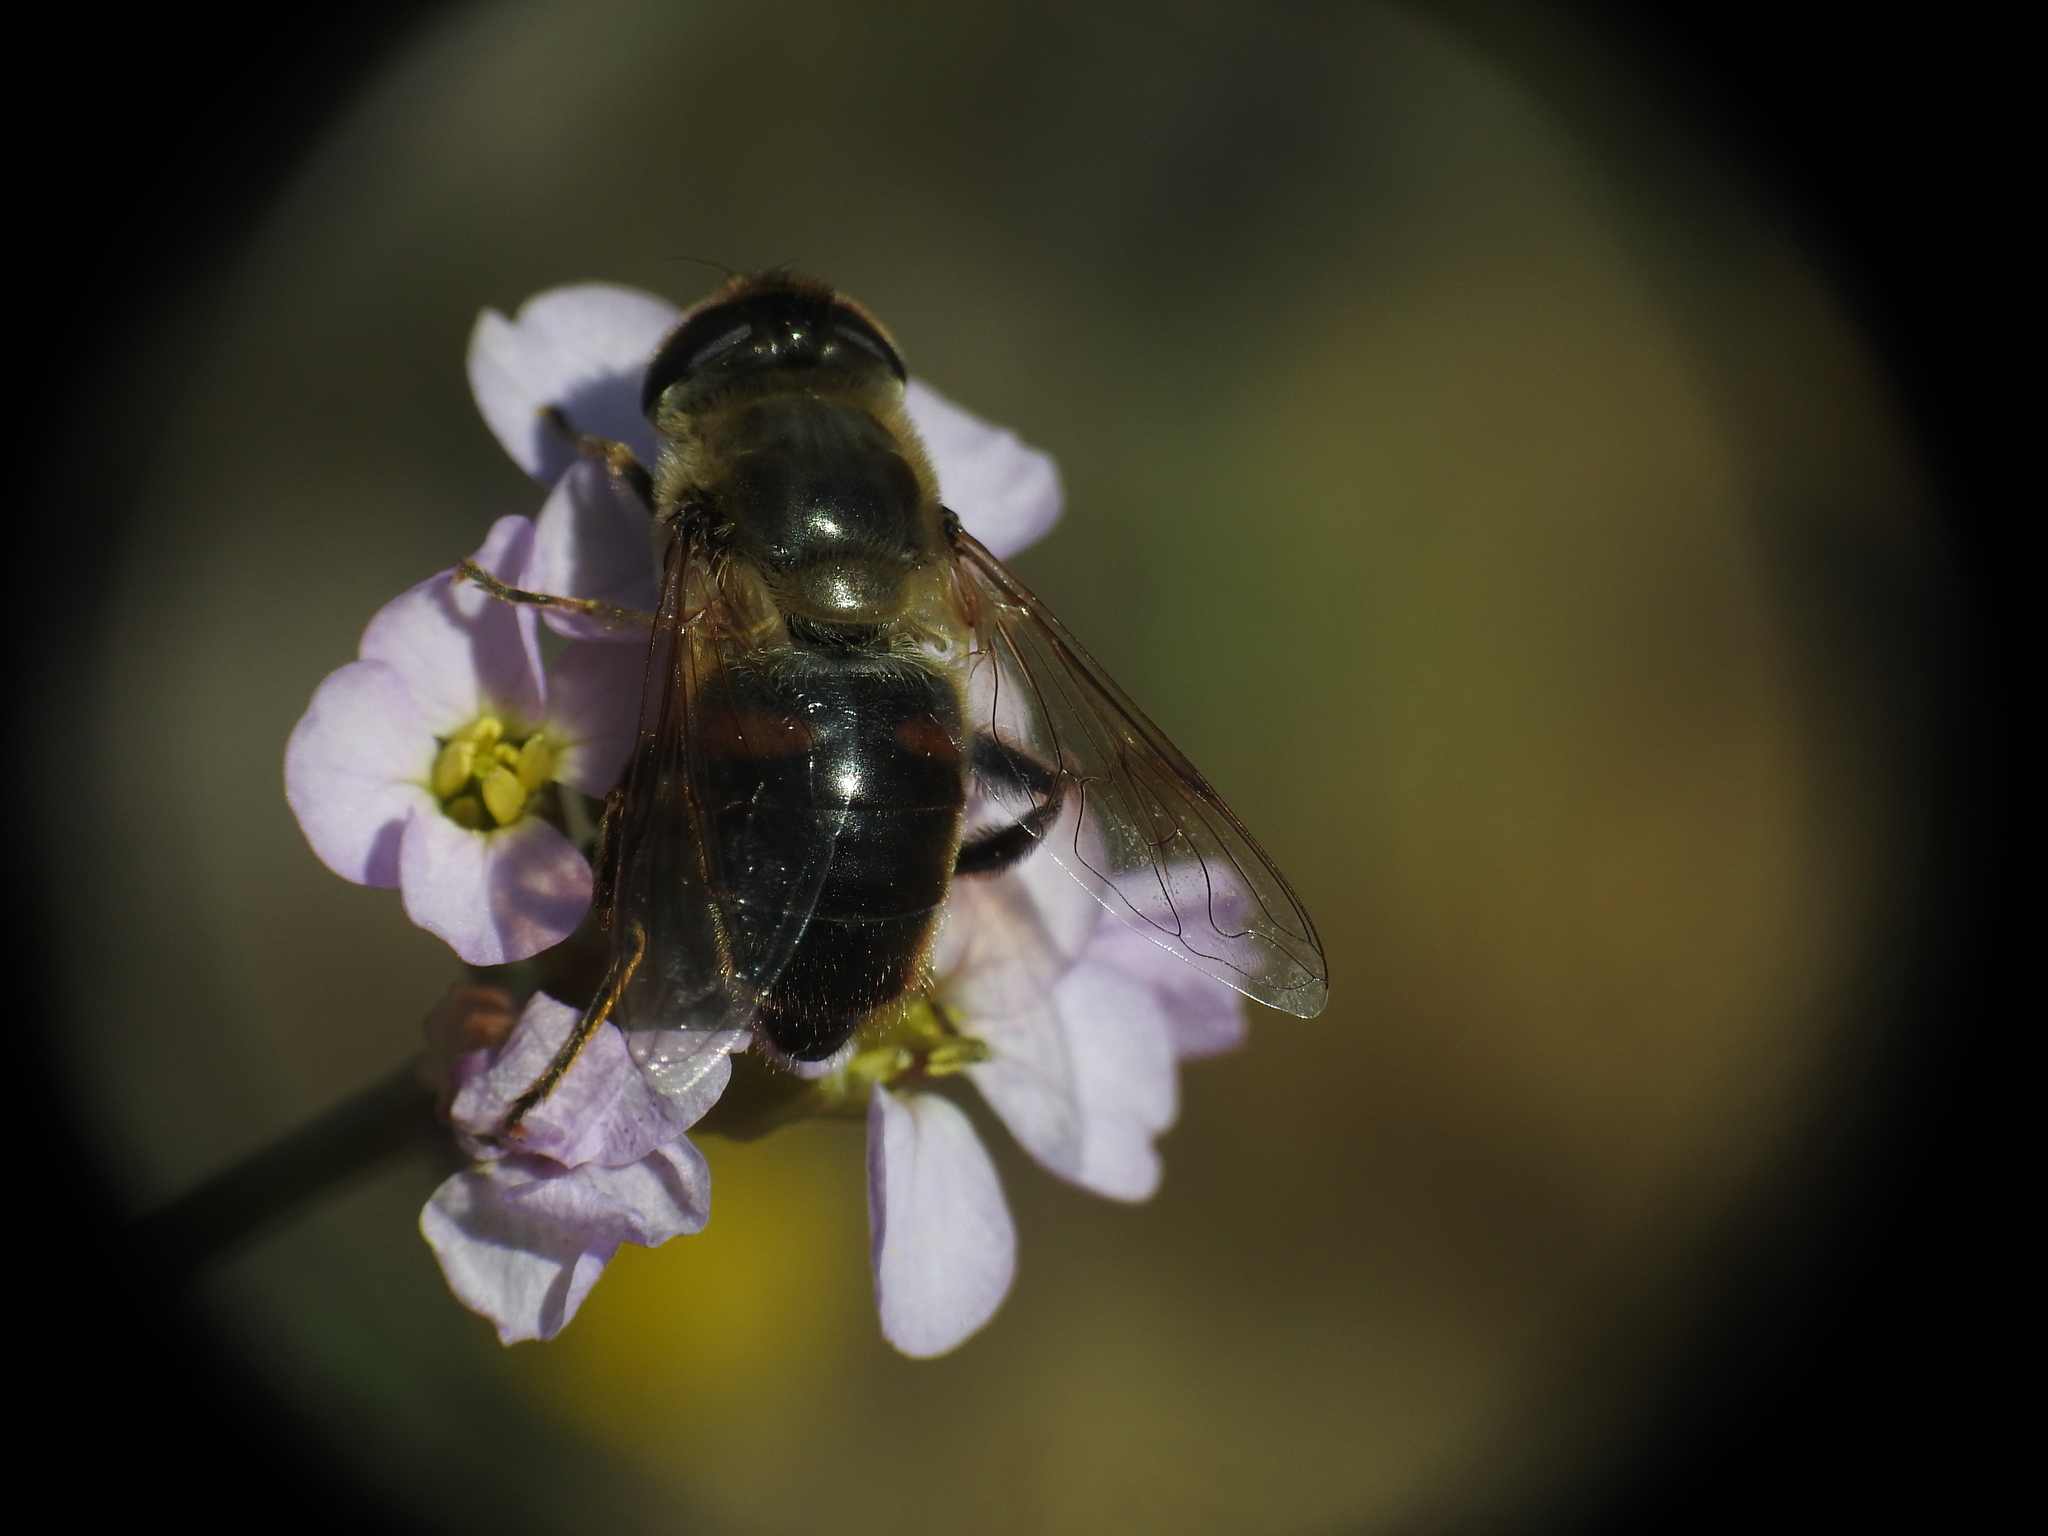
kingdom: Animalia
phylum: Arthropoda
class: Insecta
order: Diptera
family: Syrphidae
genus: Eristalis
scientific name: Eristalis tenax
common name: Drone fly
